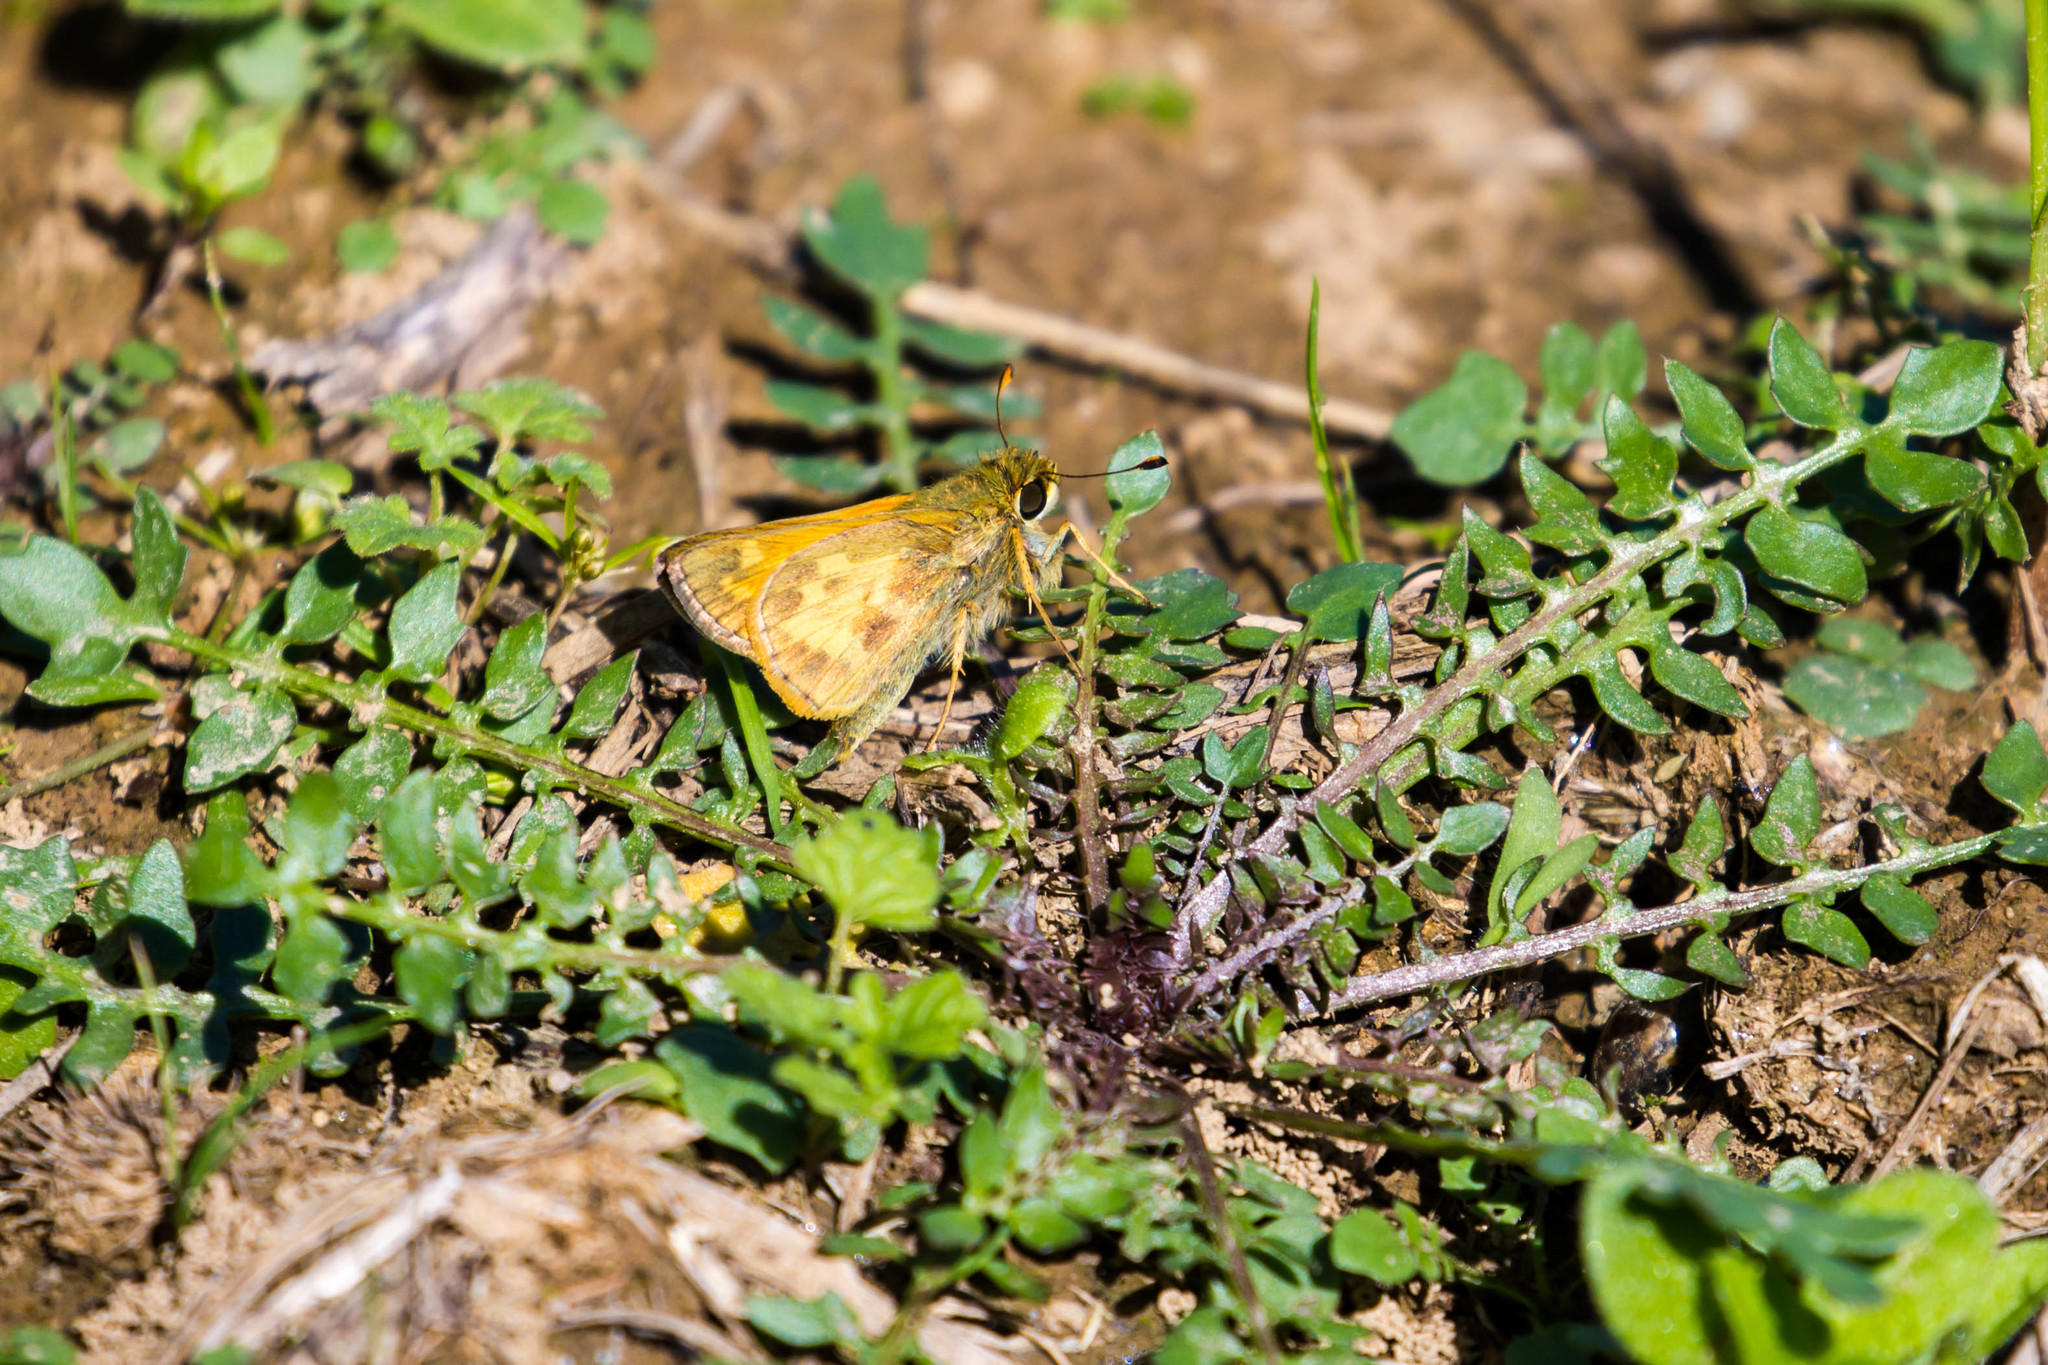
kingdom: Animalia
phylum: Arthropoda
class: Insecta
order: Lepidoptera
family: Hesperiidae
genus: Atalopedes
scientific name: Atalopedes
